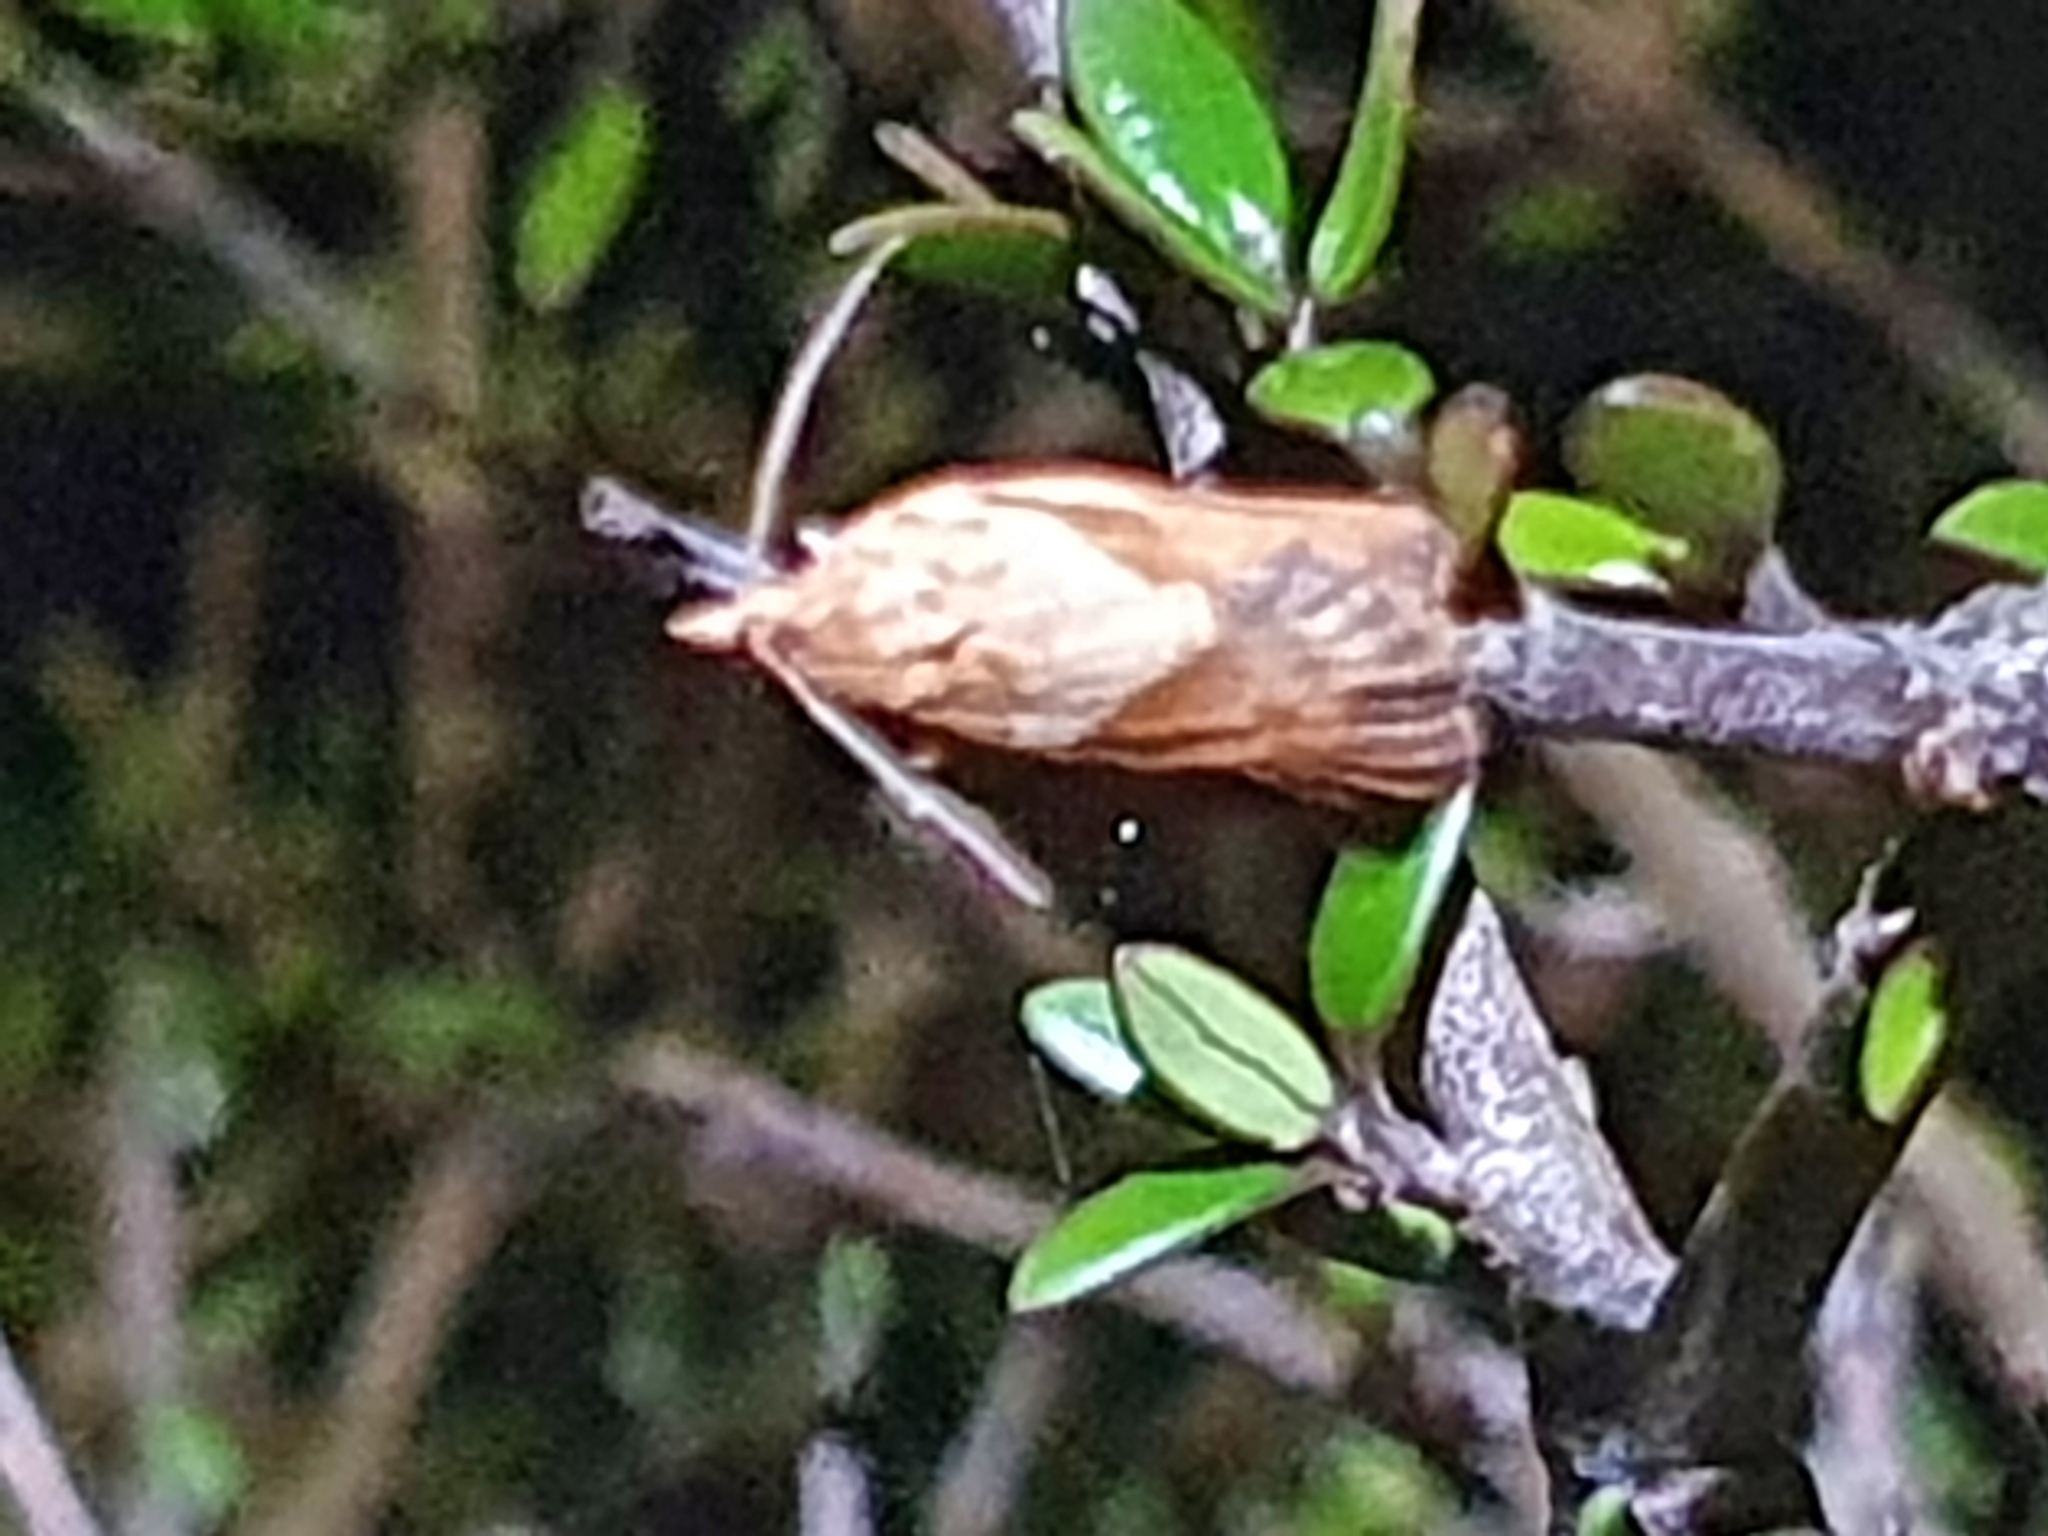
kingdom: Animalia
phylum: Arthropoda
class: Insecta
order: Lepidoptera
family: Tortricidae
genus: Epiphyas
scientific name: Epiphyas postvittana
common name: Light brown apple moth
